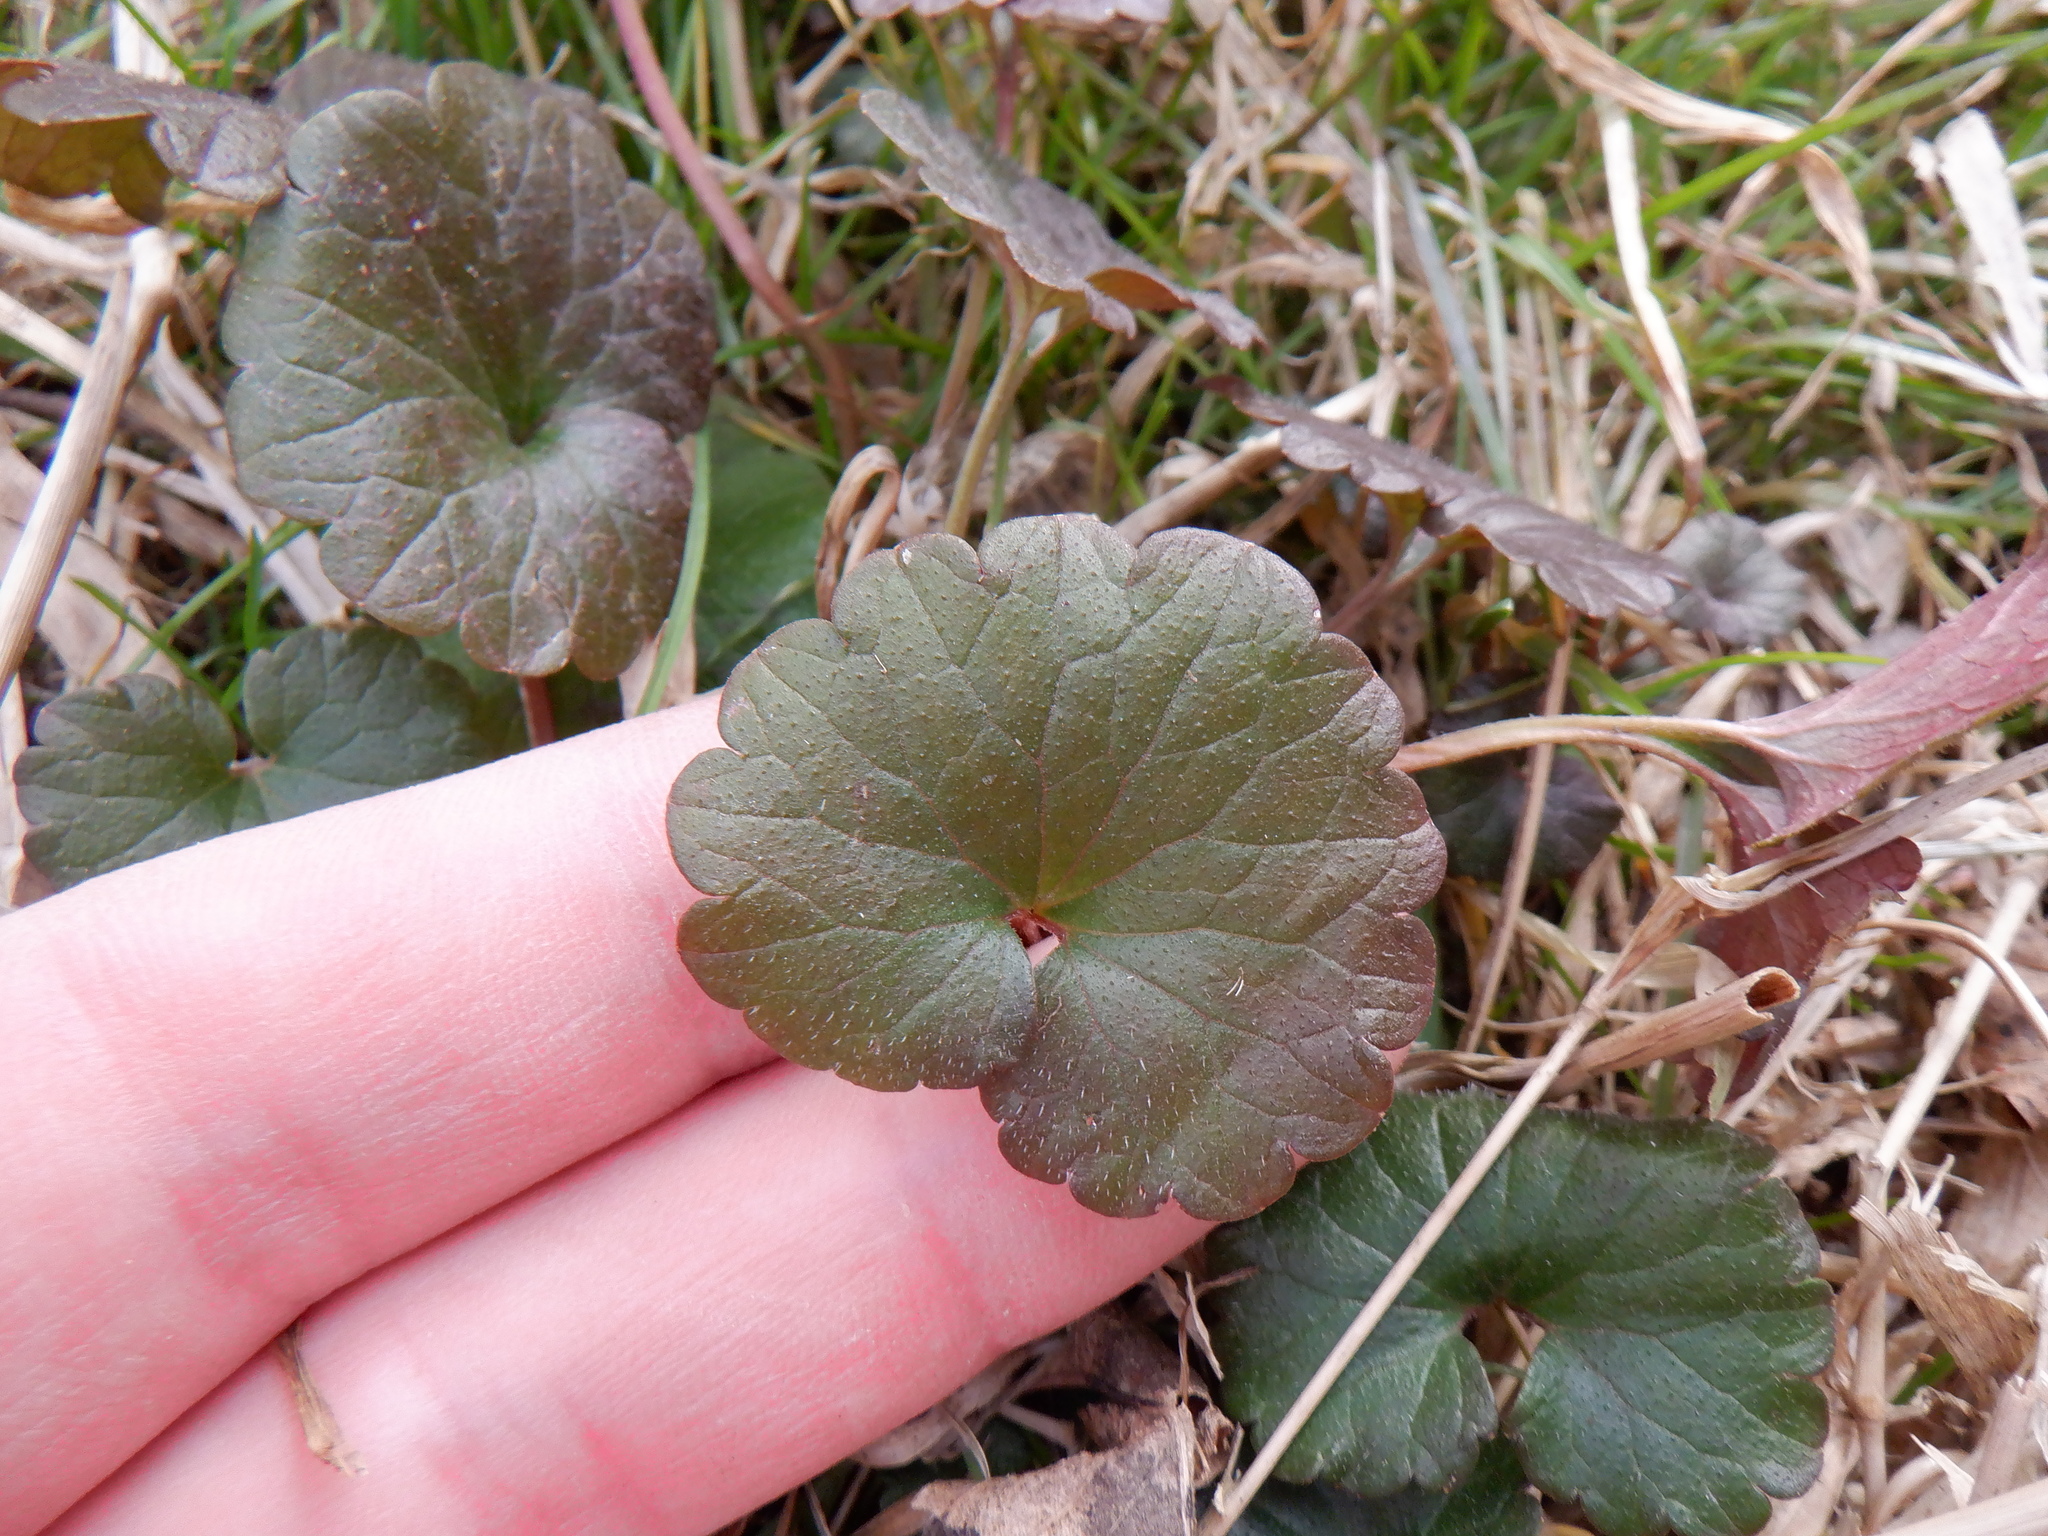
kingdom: Plantae
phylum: Tracheophyta
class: Magnoliopsida
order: Lamiales
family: Lamiaceae
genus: Glechoma
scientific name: Glechoma hederacea
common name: Ground ivy
